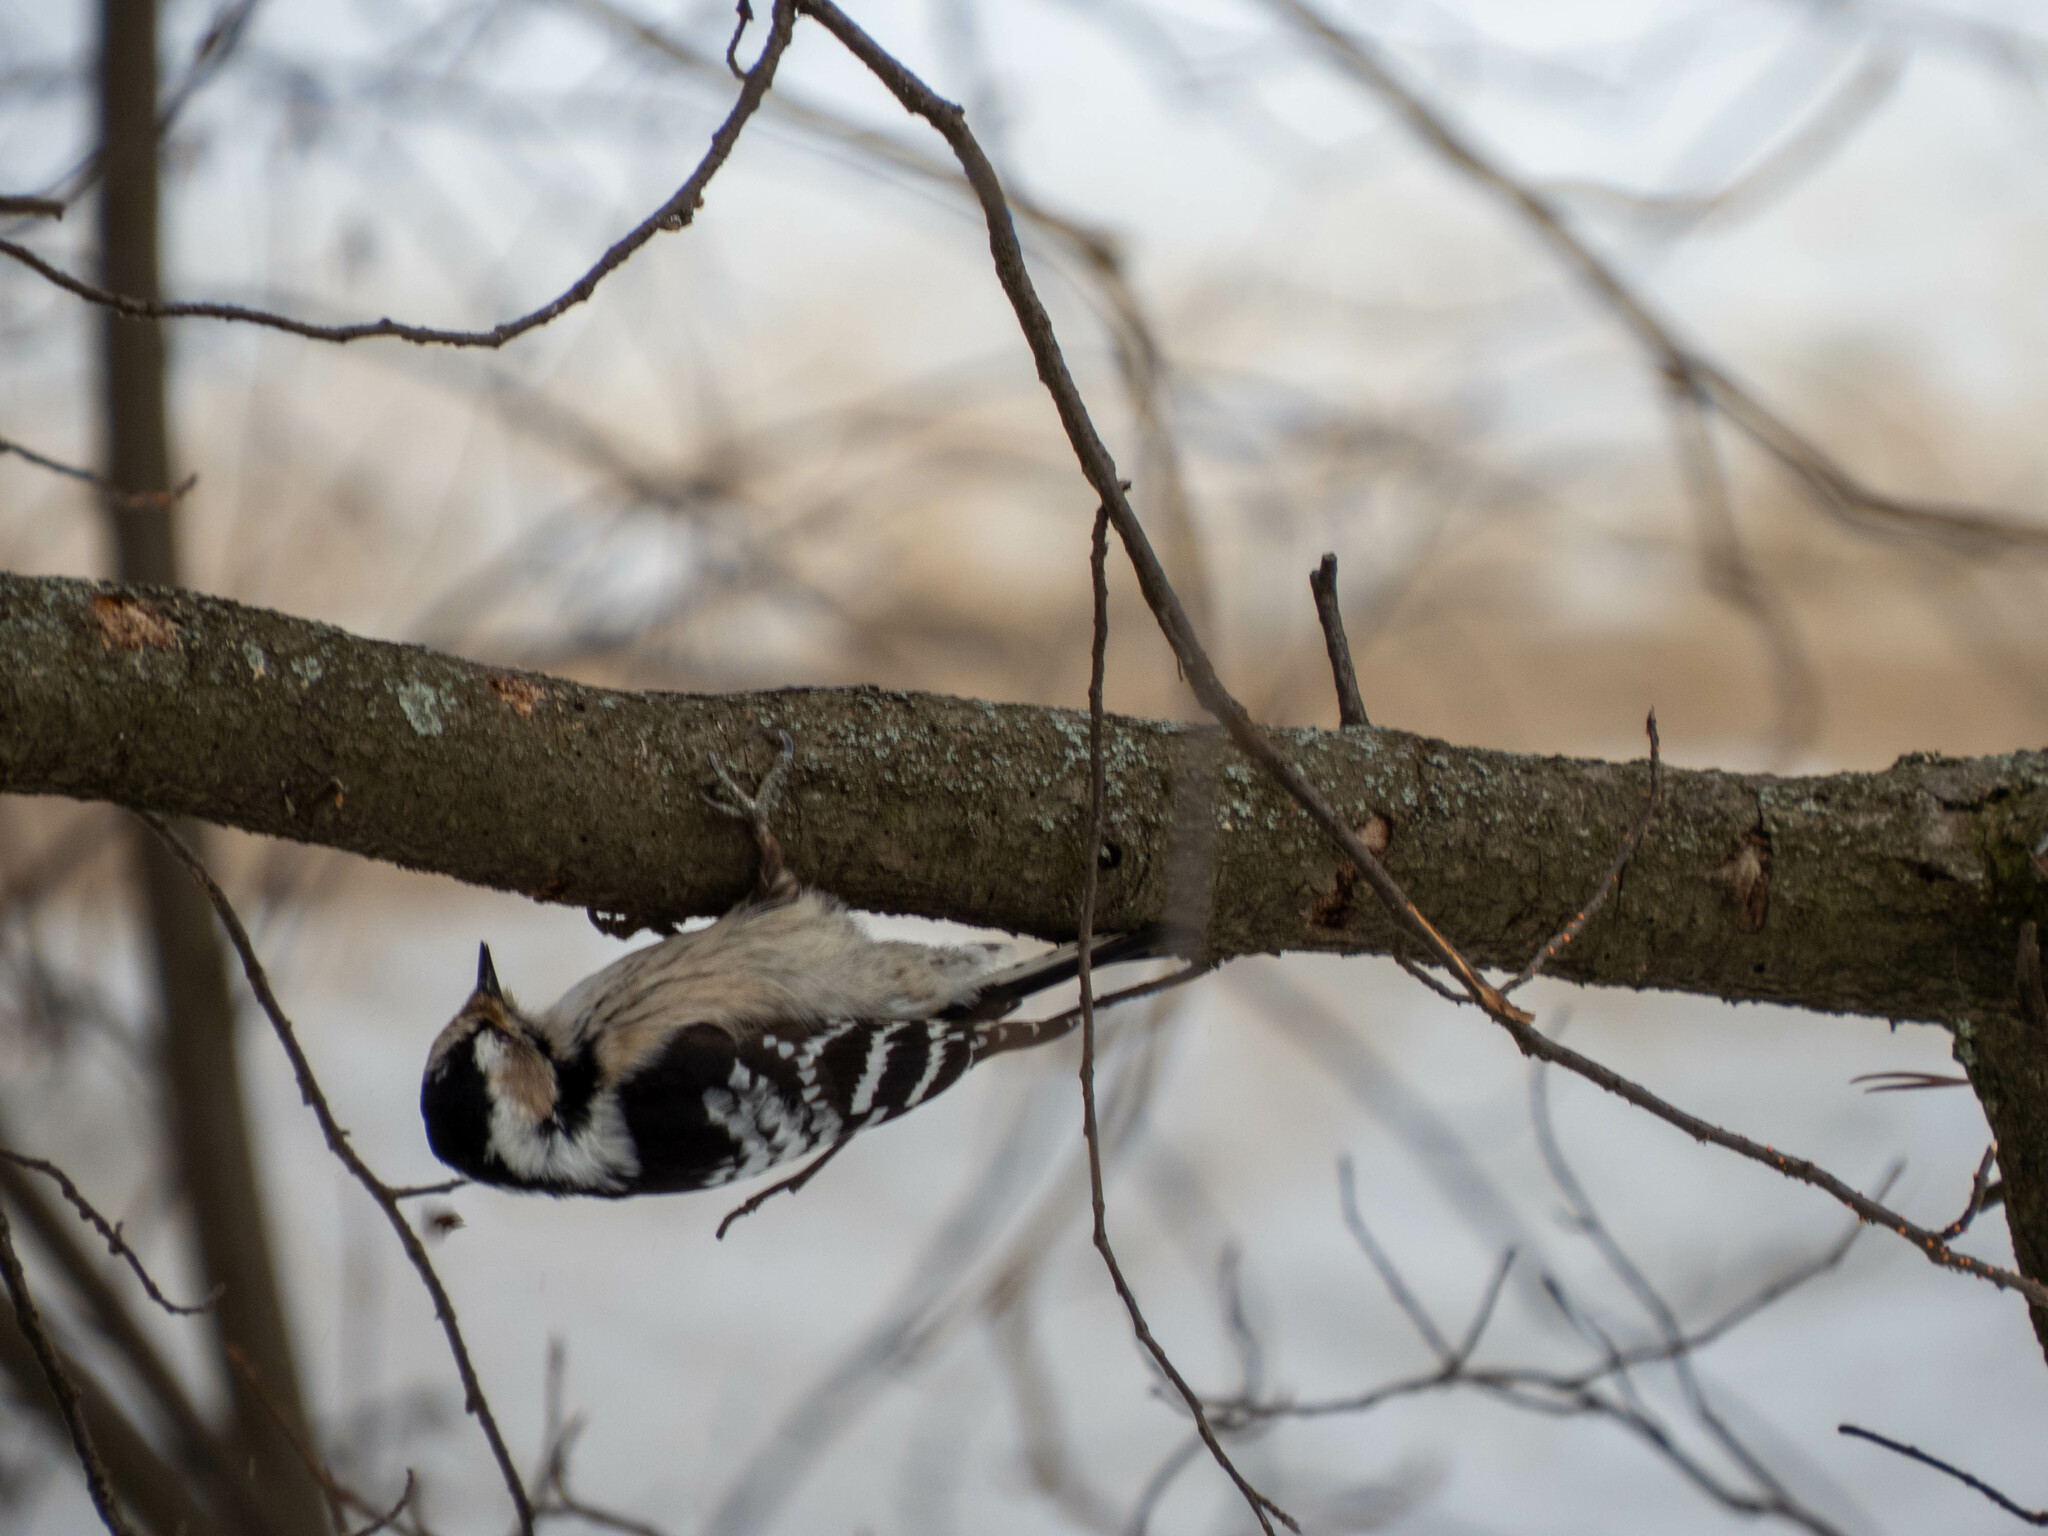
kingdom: Animalia
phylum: Chordata
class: Aves
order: Piciformes
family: Picidae
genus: Dryobates
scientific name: Dryobates minor
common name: Lesser spotted woodpecker
